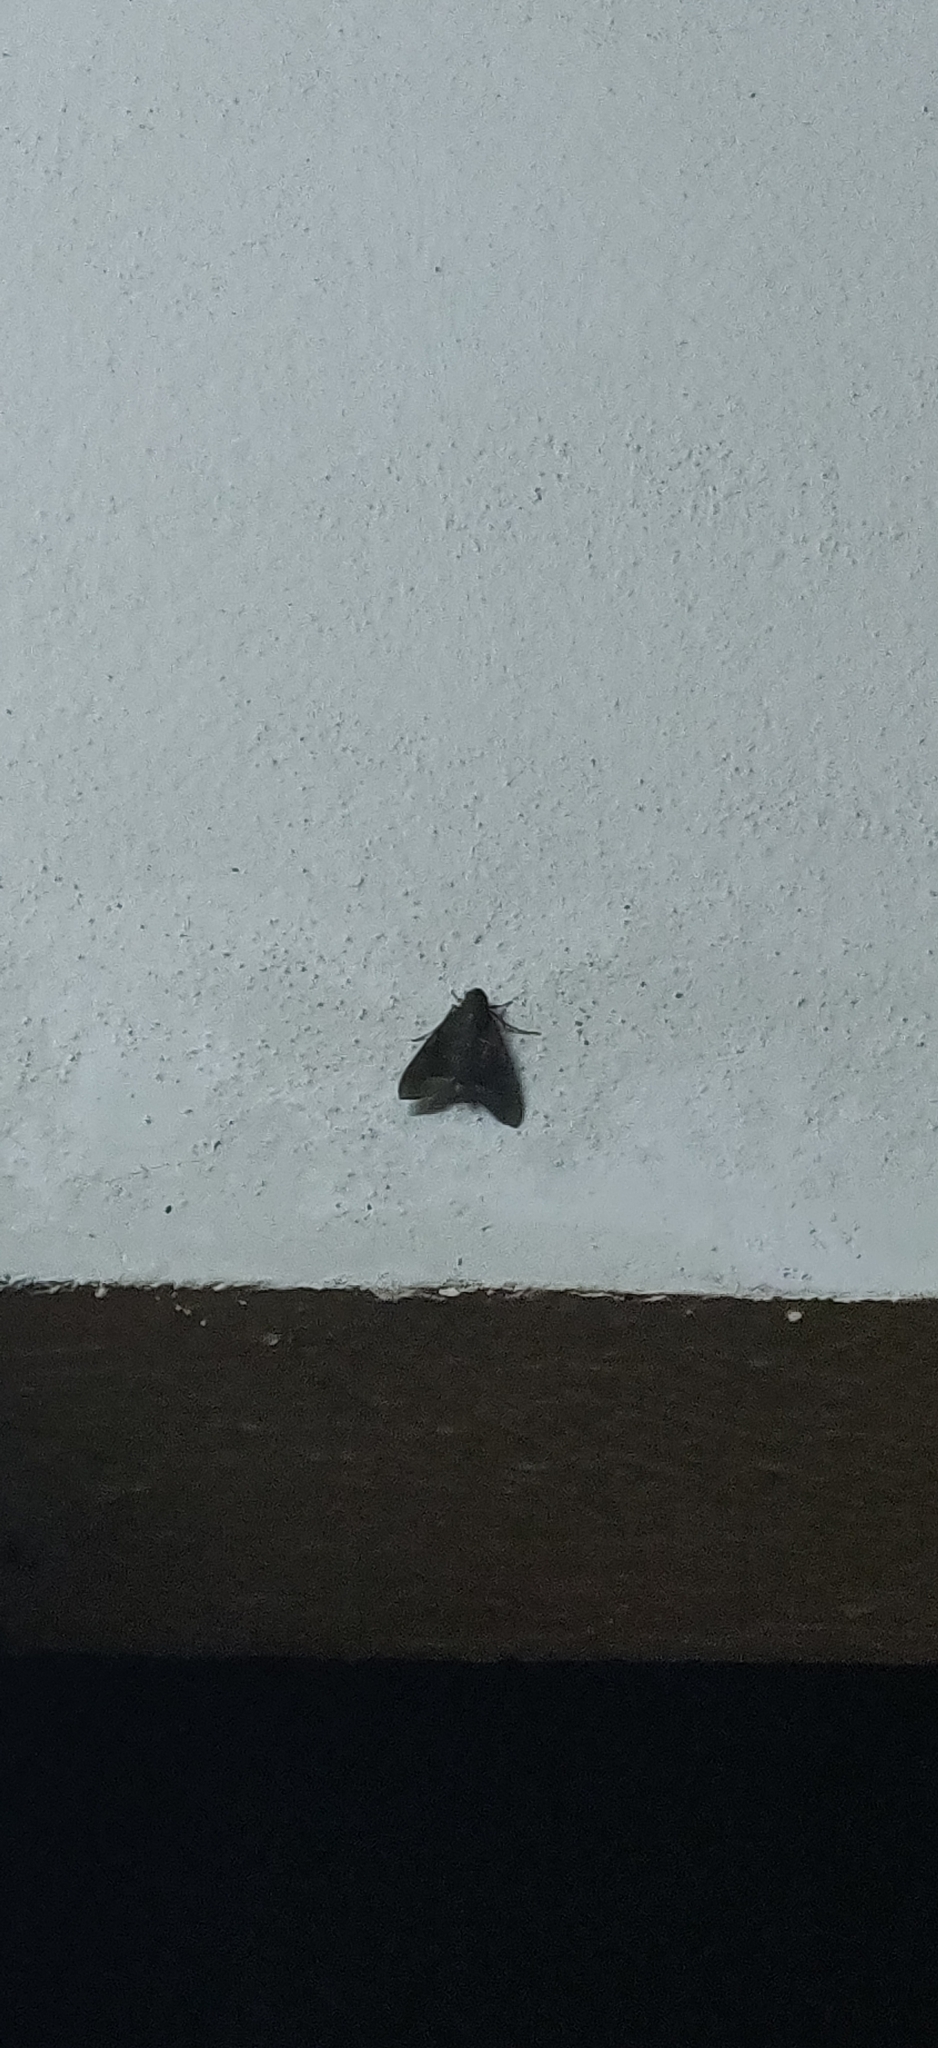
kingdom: Animalia
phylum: Arthropoda
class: Insecta
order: Lepidoptera
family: Sphingidae
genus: Nephele
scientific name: Nephele hespera
